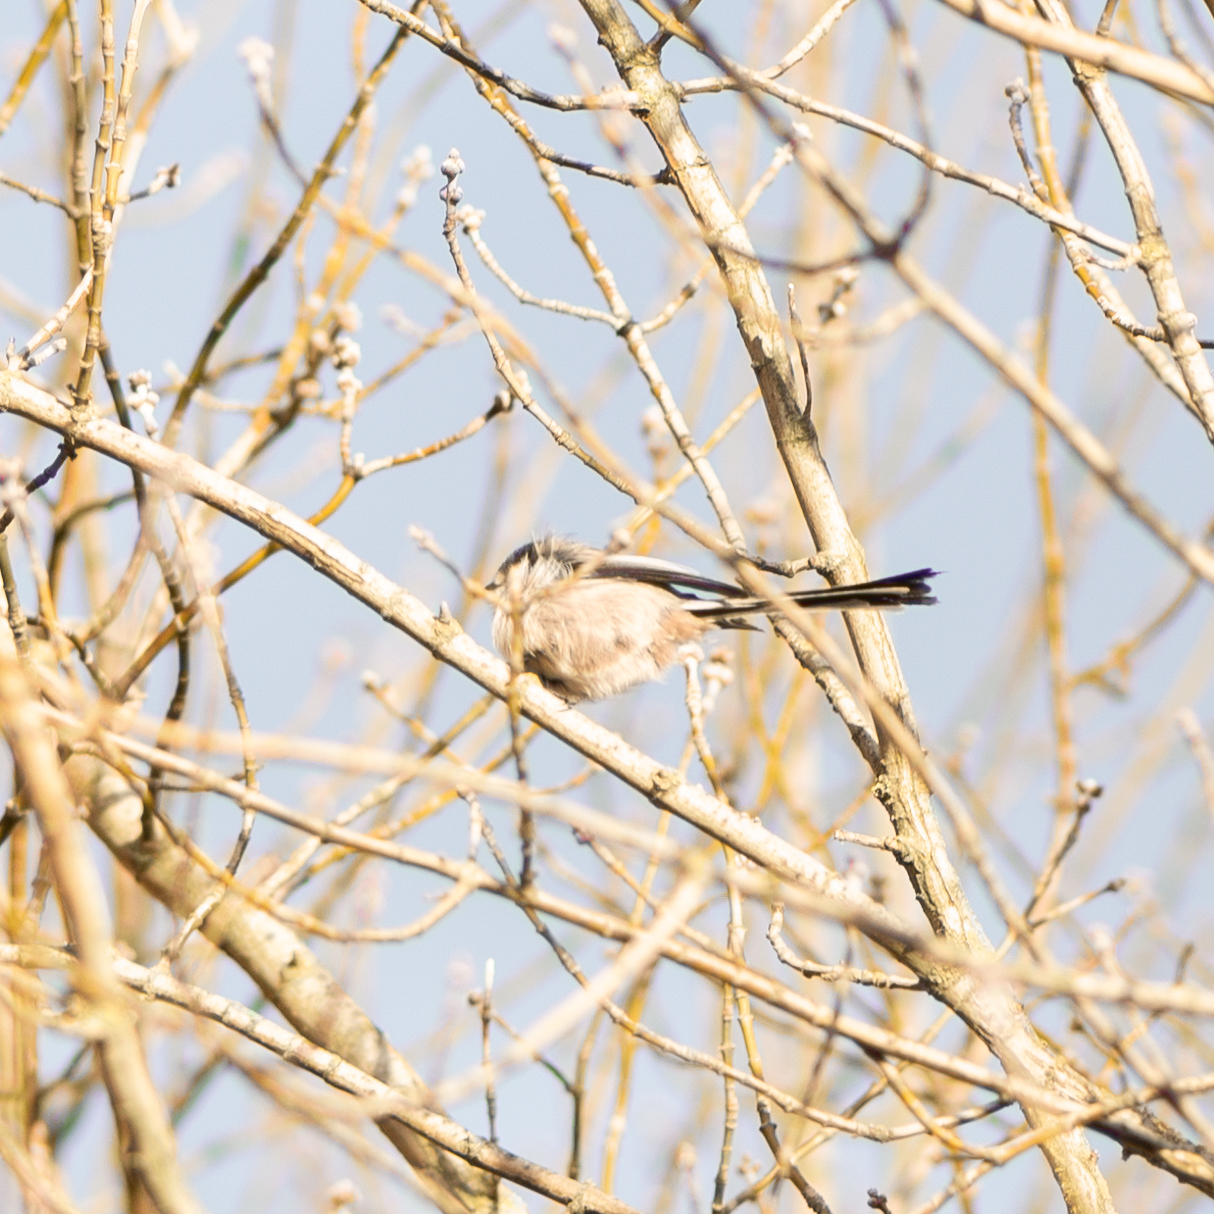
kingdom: Animalia
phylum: Chordata
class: Aves
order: Passeriformes
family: Aegithalidae
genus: Aegithalos
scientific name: Aegithalos caudatus
